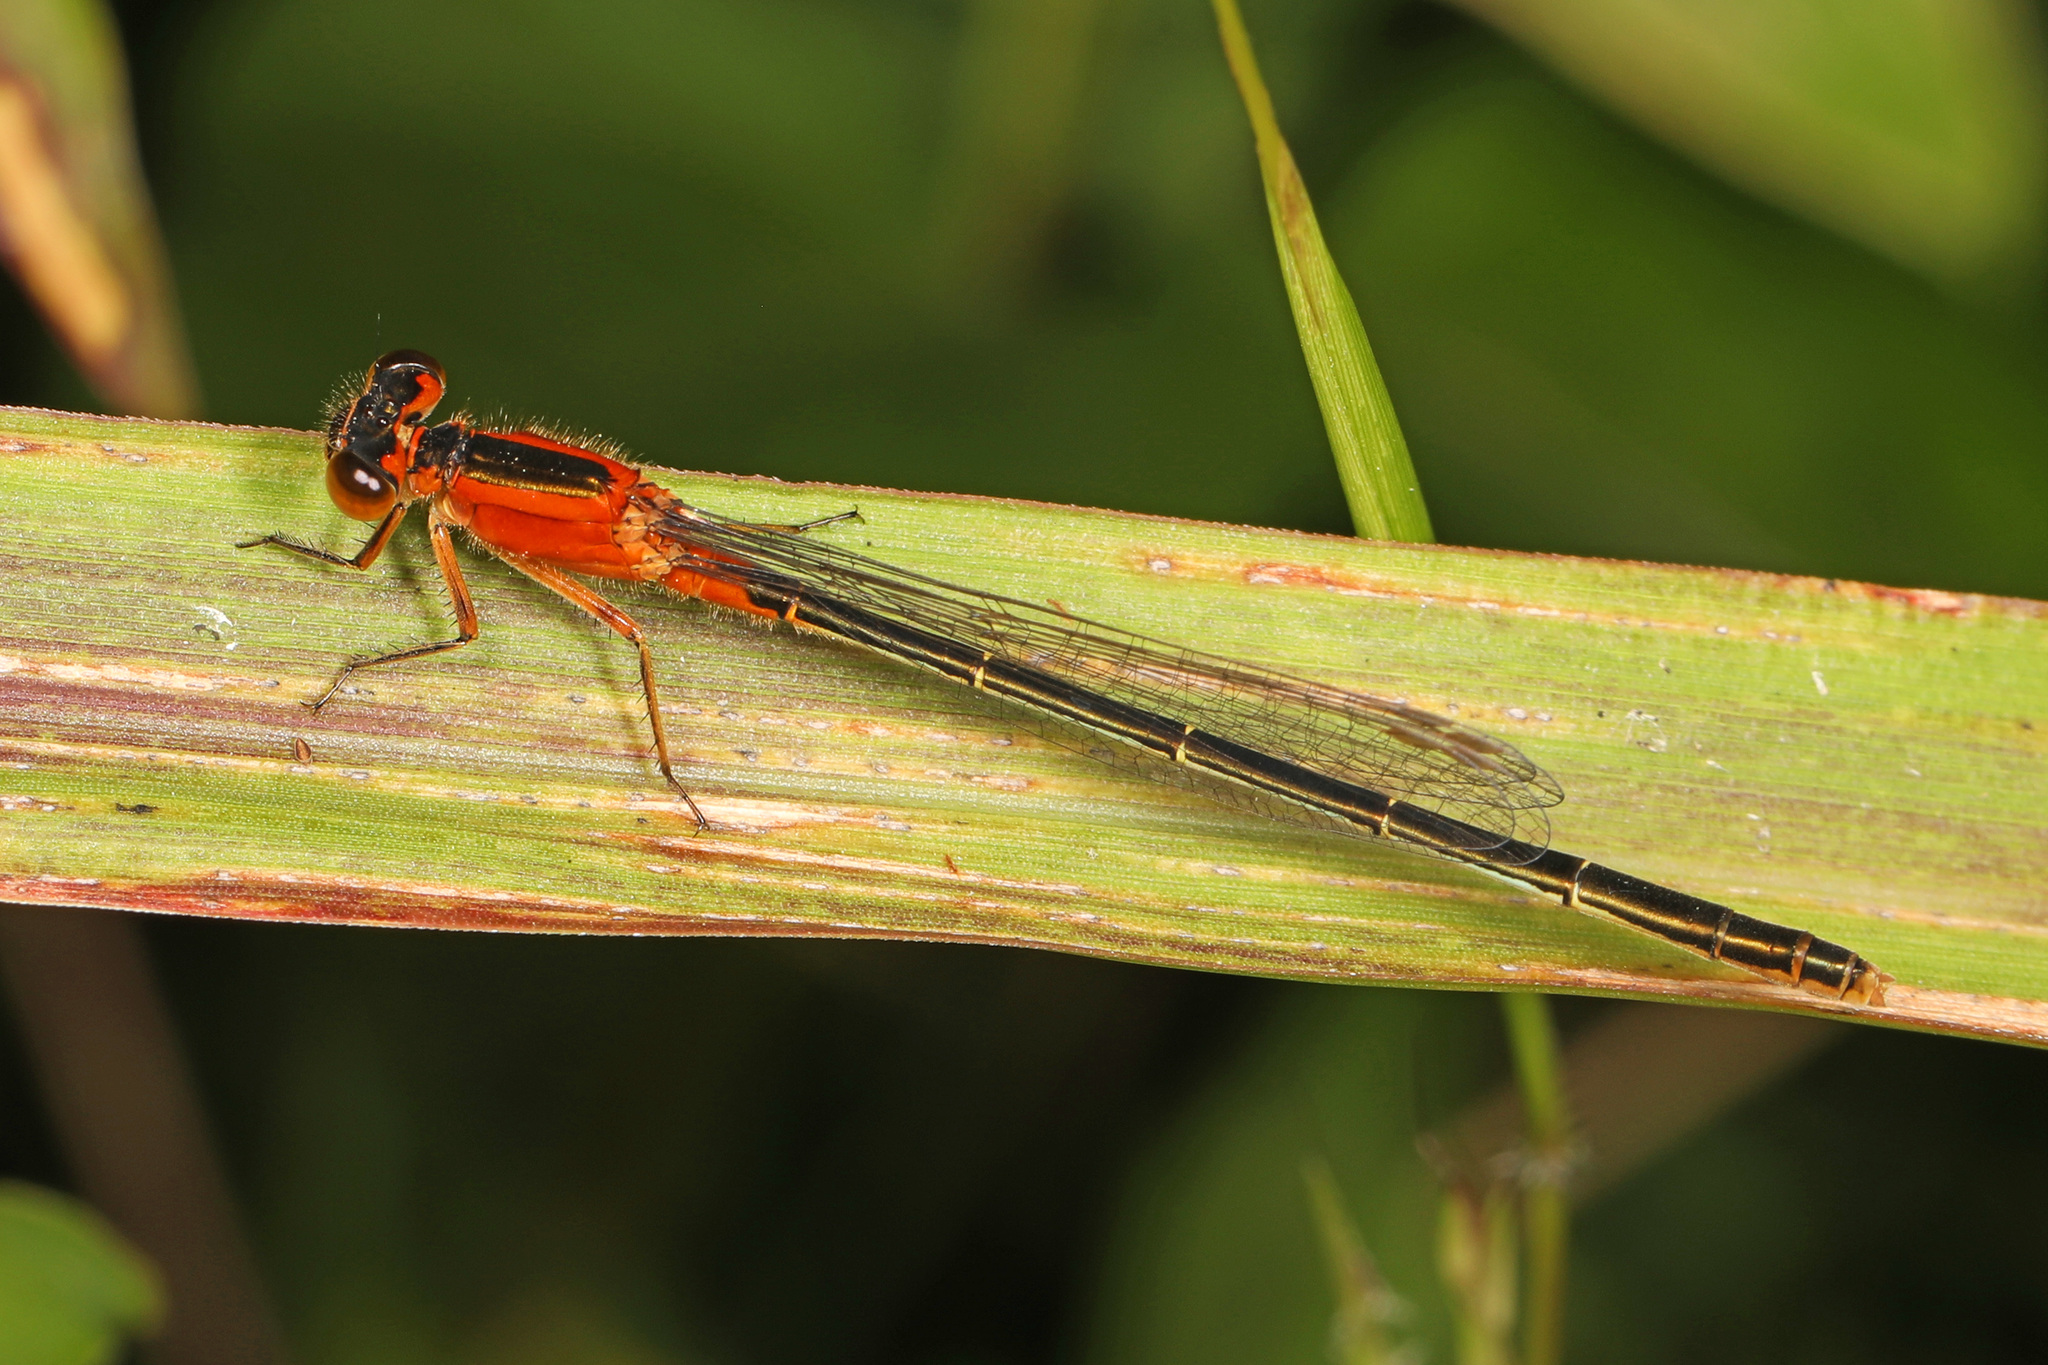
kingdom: Animalia
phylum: Arthropoda
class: Insecta
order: Odonata
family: Coenagrionidae
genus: Ischnura
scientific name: Ischnura ramburii
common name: Rambur's forktail
